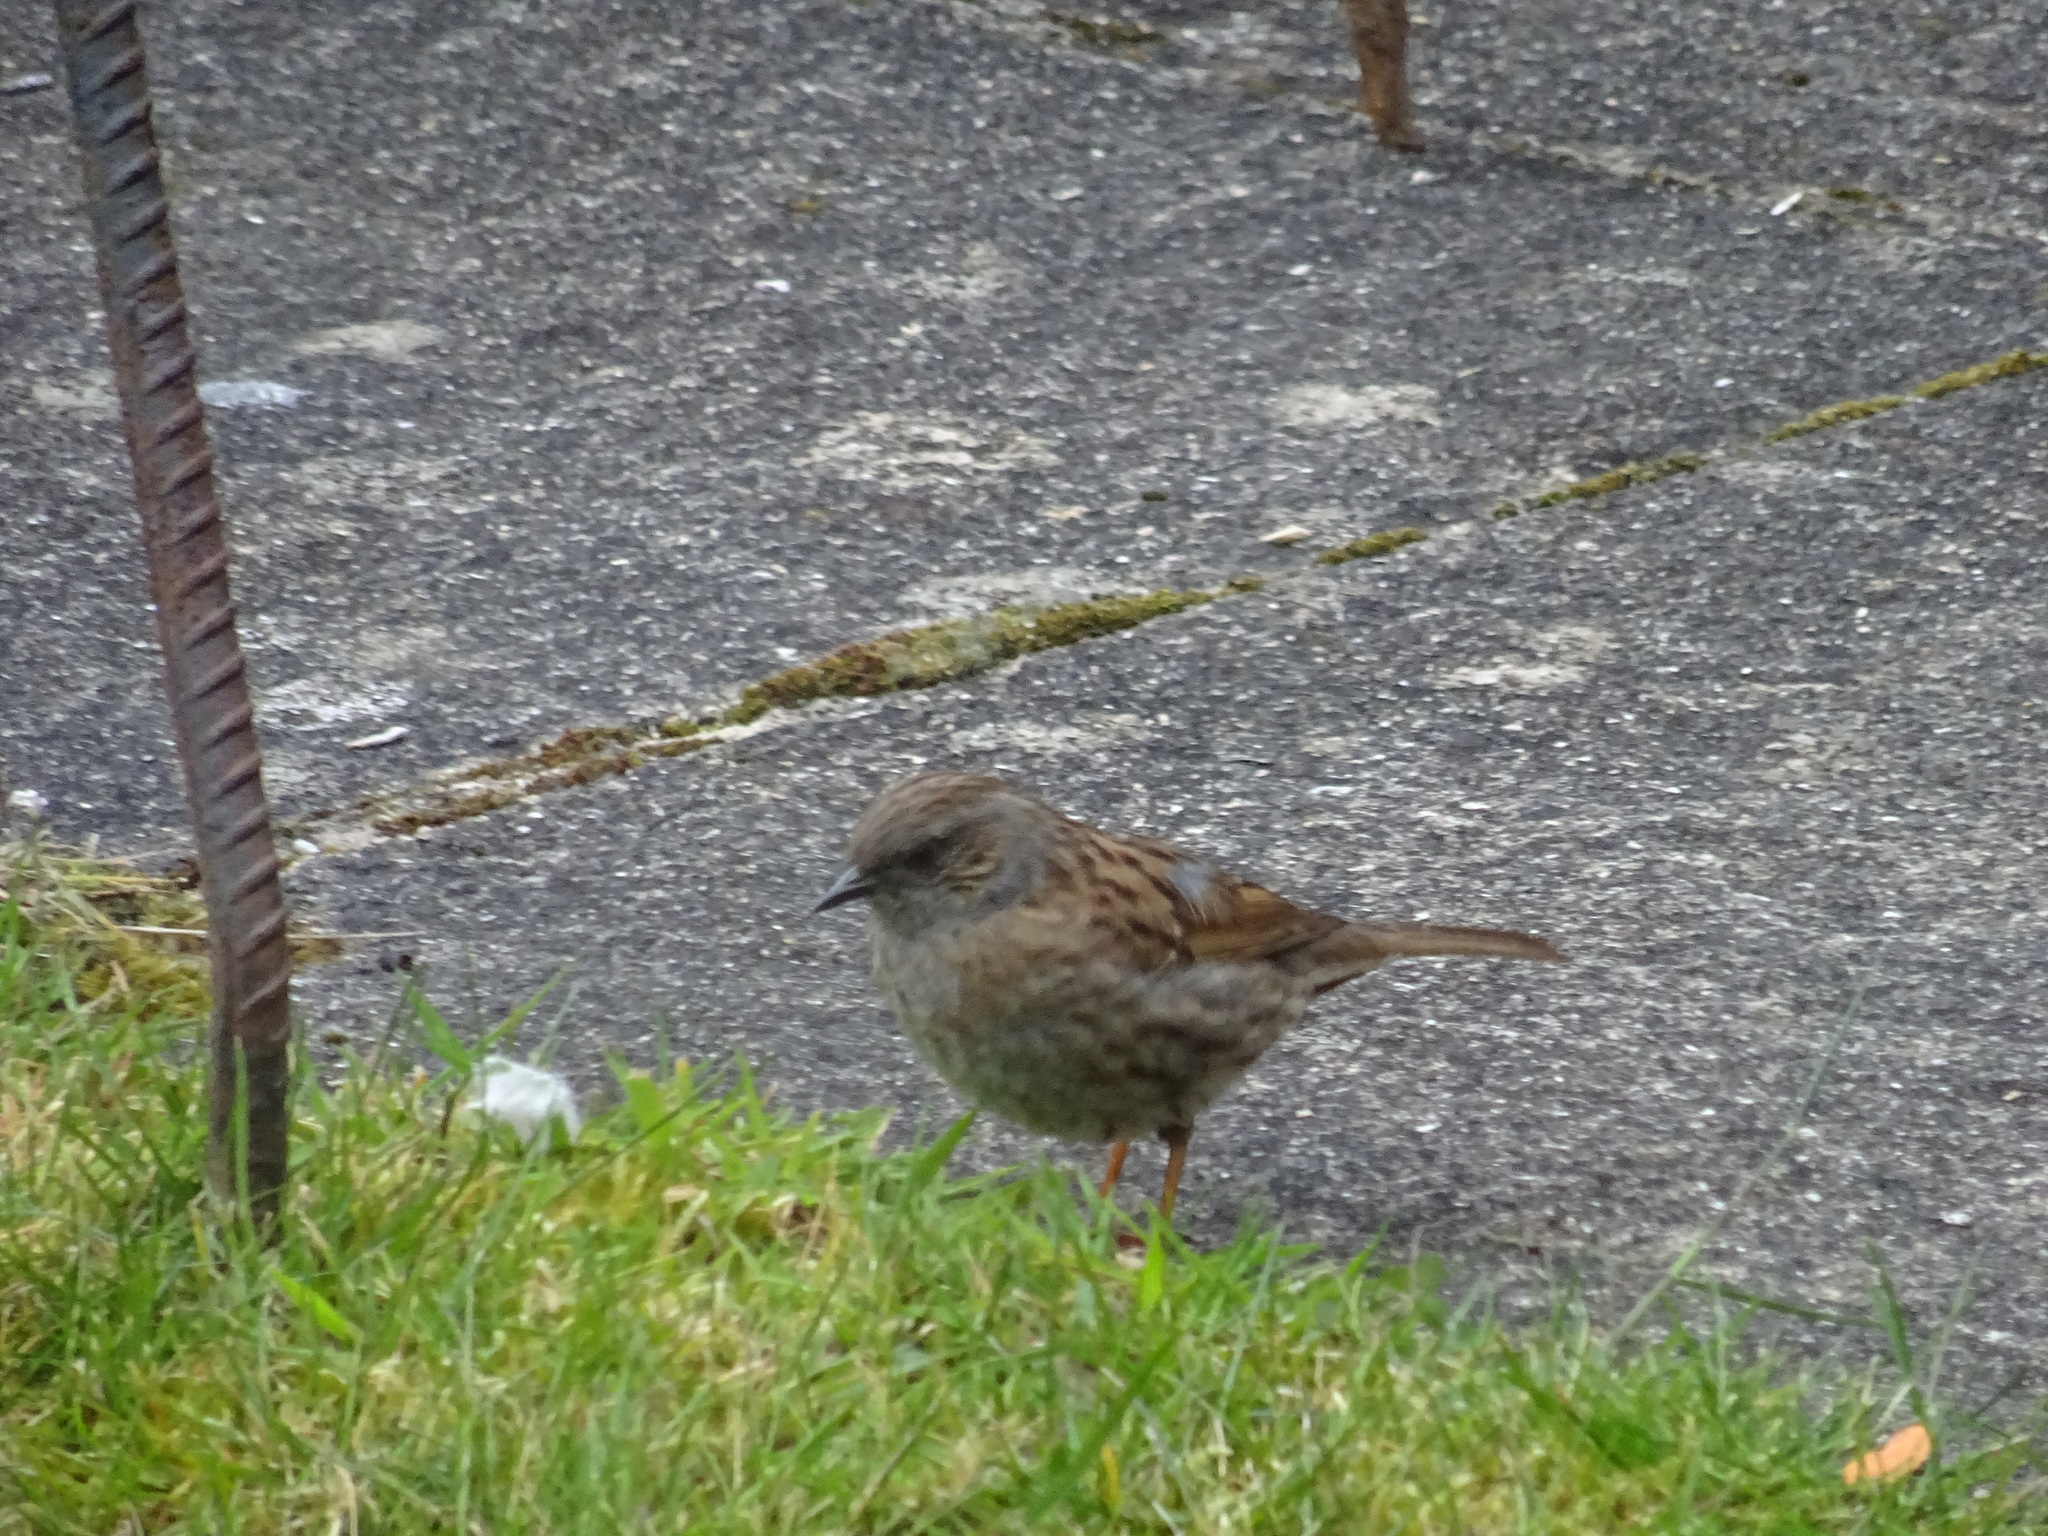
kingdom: Animalia
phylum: Chordata
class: Aves
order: Passeriformes
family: Prunellidae
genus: Prunella
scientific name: Prunella modularis
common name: Dunnock
